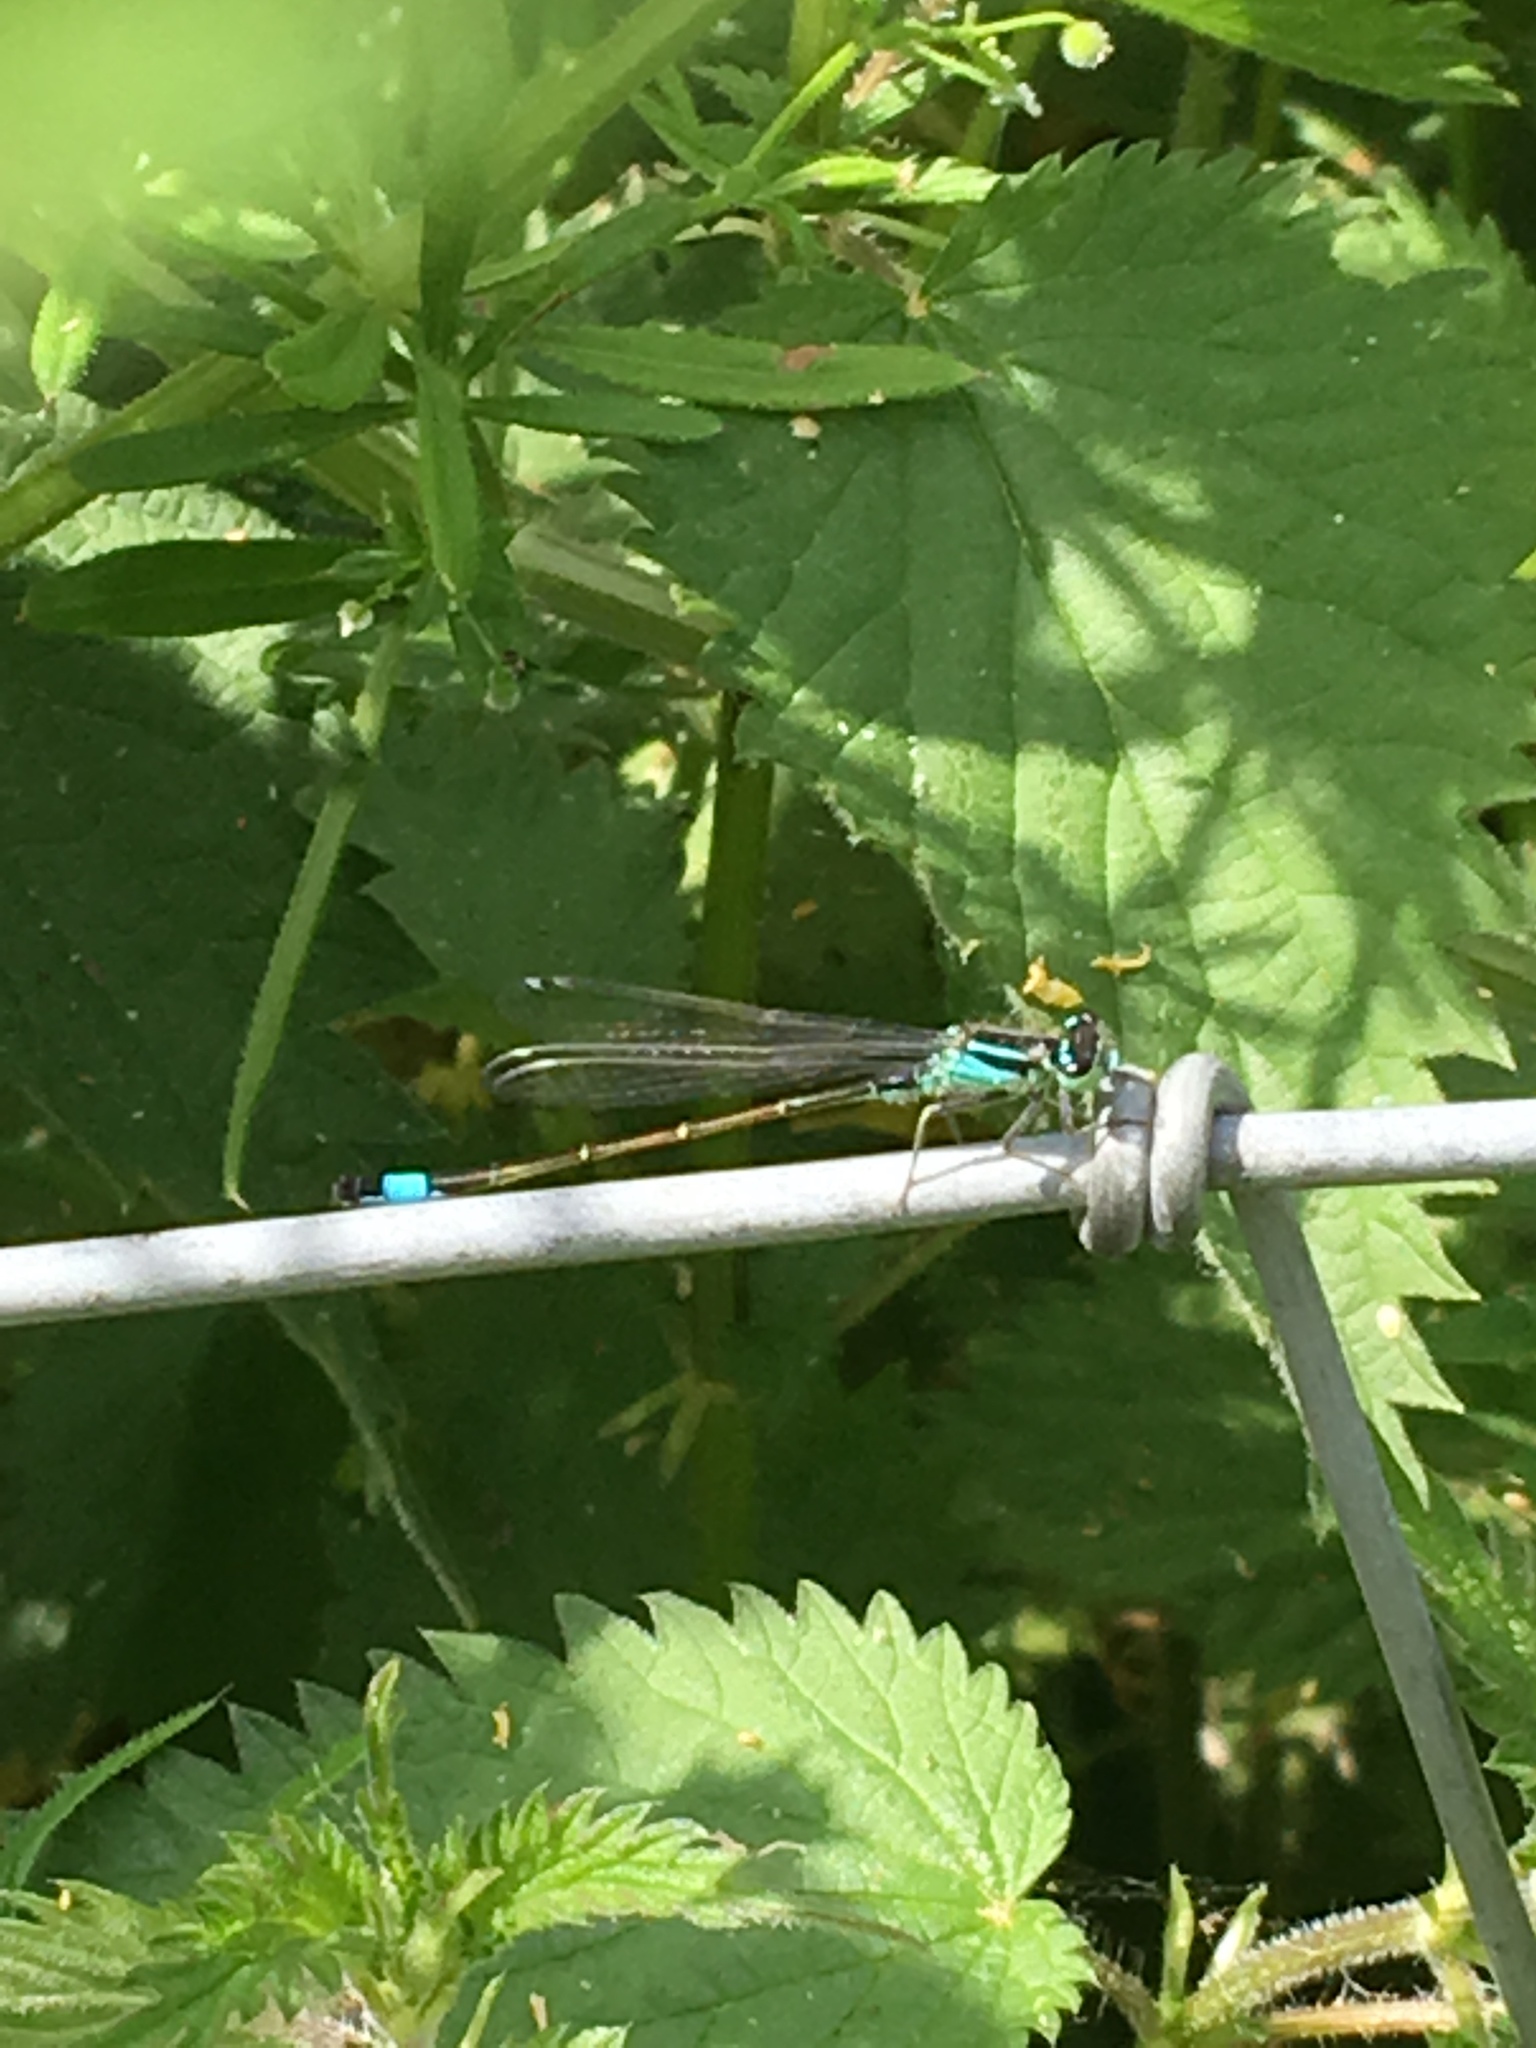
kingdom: Animalia
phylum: Arthropoda
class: Insecta
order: Odonata
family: Coenagrionidae
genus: Ischnura
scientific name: Ischnura elegans
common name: Blue-tailed damselfly
